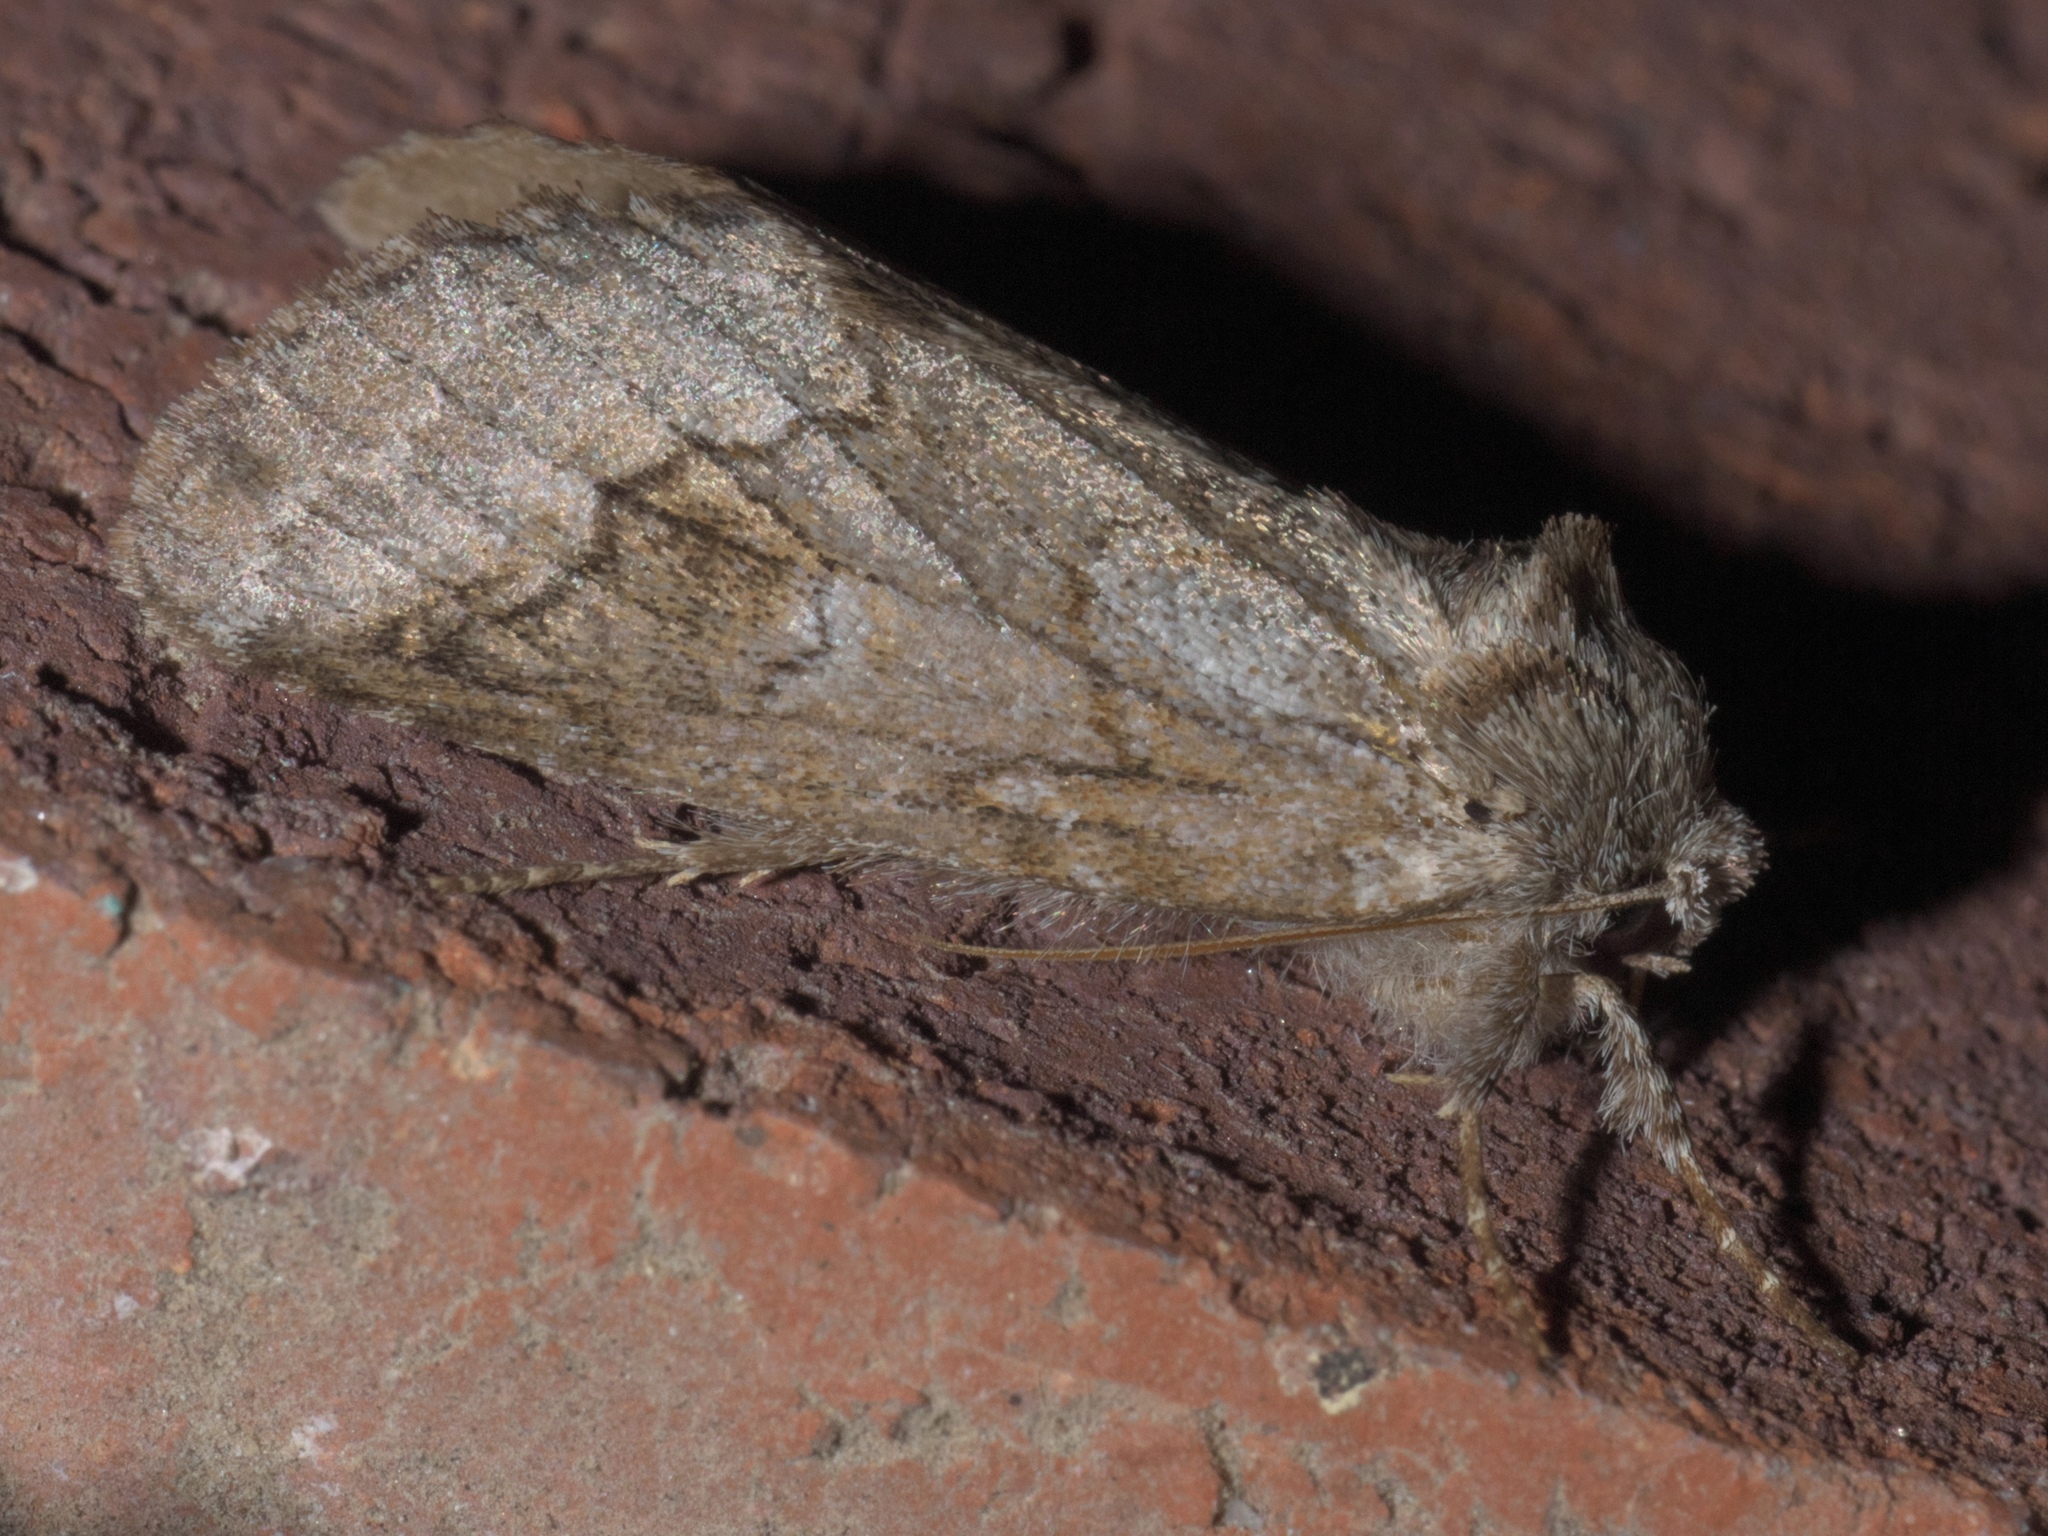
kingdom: Animalia
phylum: Arthropoda
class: Insecta
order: Lepidoptera
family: Notodontidae
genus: Lochmaeus
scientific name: Lochmaeus bilineata
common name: Double-lined prominent
